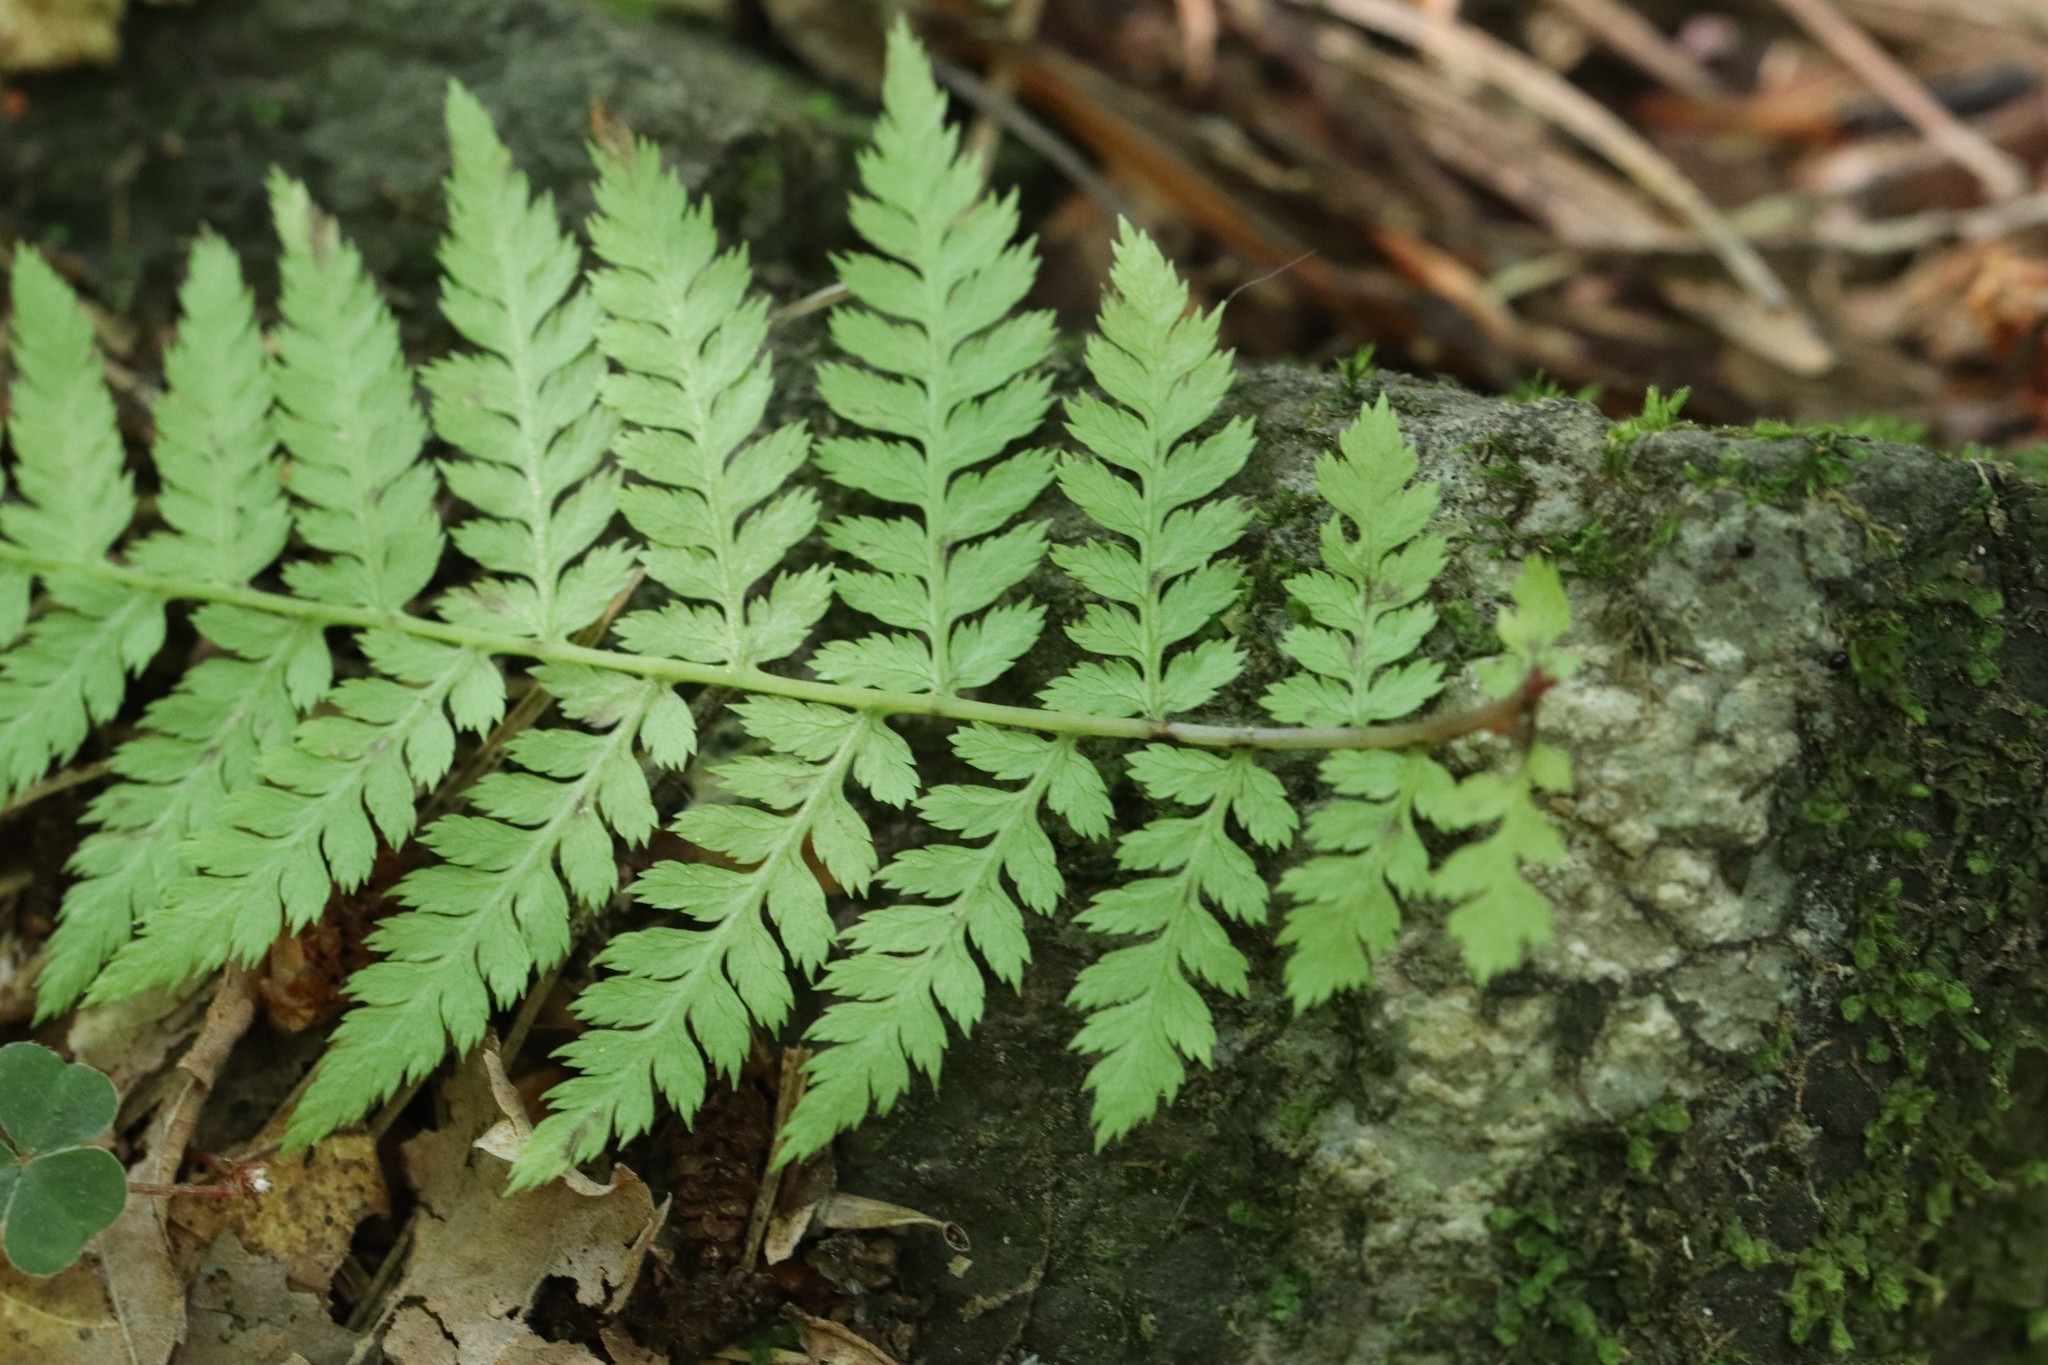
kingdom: Plantae
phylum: Tracheophyta
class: Polypodiopsida
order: Polypodiales
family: Athyriaceae
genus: Athyrium
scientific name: Athyrium spinulosum
